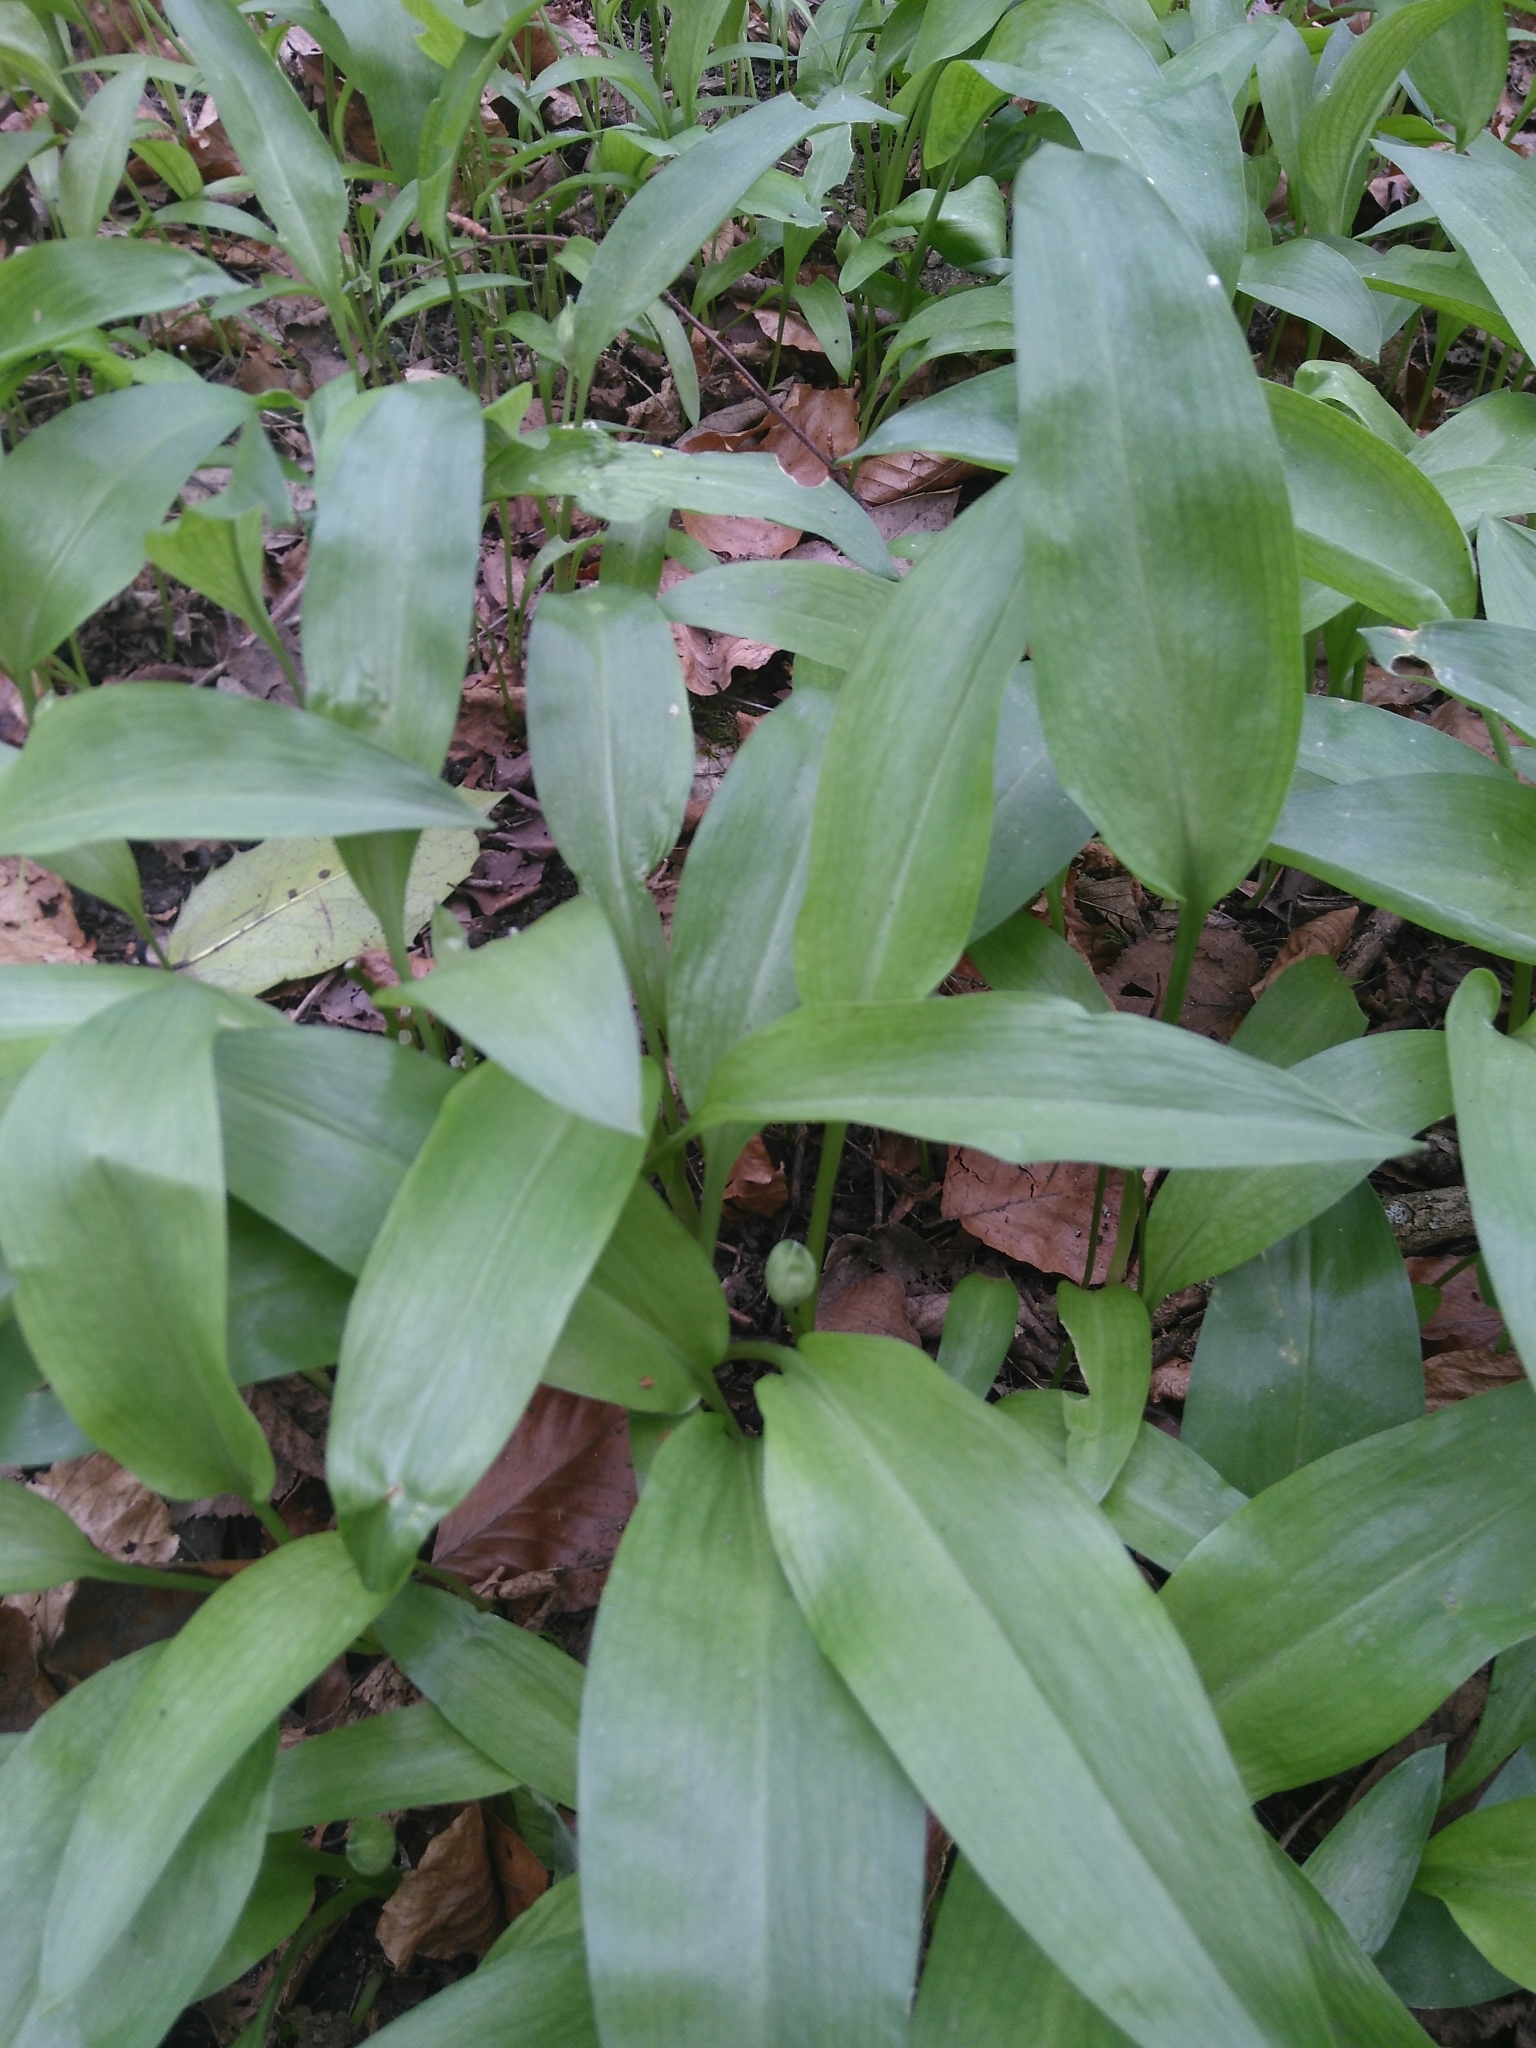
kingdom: Plantae
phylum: Tracheophyta
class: Liliopsida
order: Asparagales
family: Amaryllidaceae
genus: Allium
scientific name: Allium ursinum
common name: Ramsons
